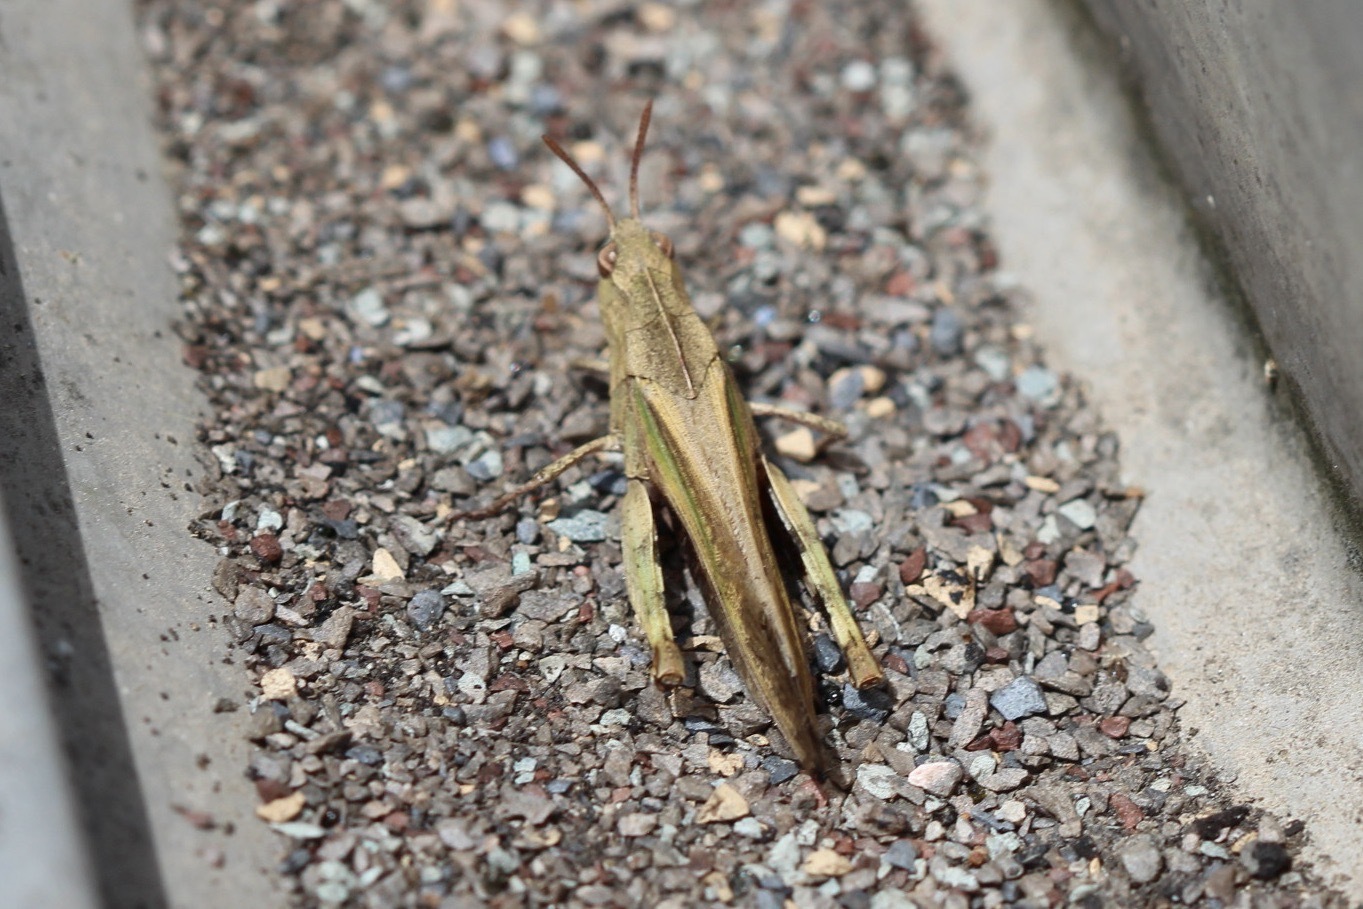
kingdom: Animalia
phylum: Arthropoda
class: Insecta
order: Orthoptera
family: Acrididae
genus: Chortophaga
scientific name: Chortophaga viridifasciata
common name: Green-striped grasshopper
